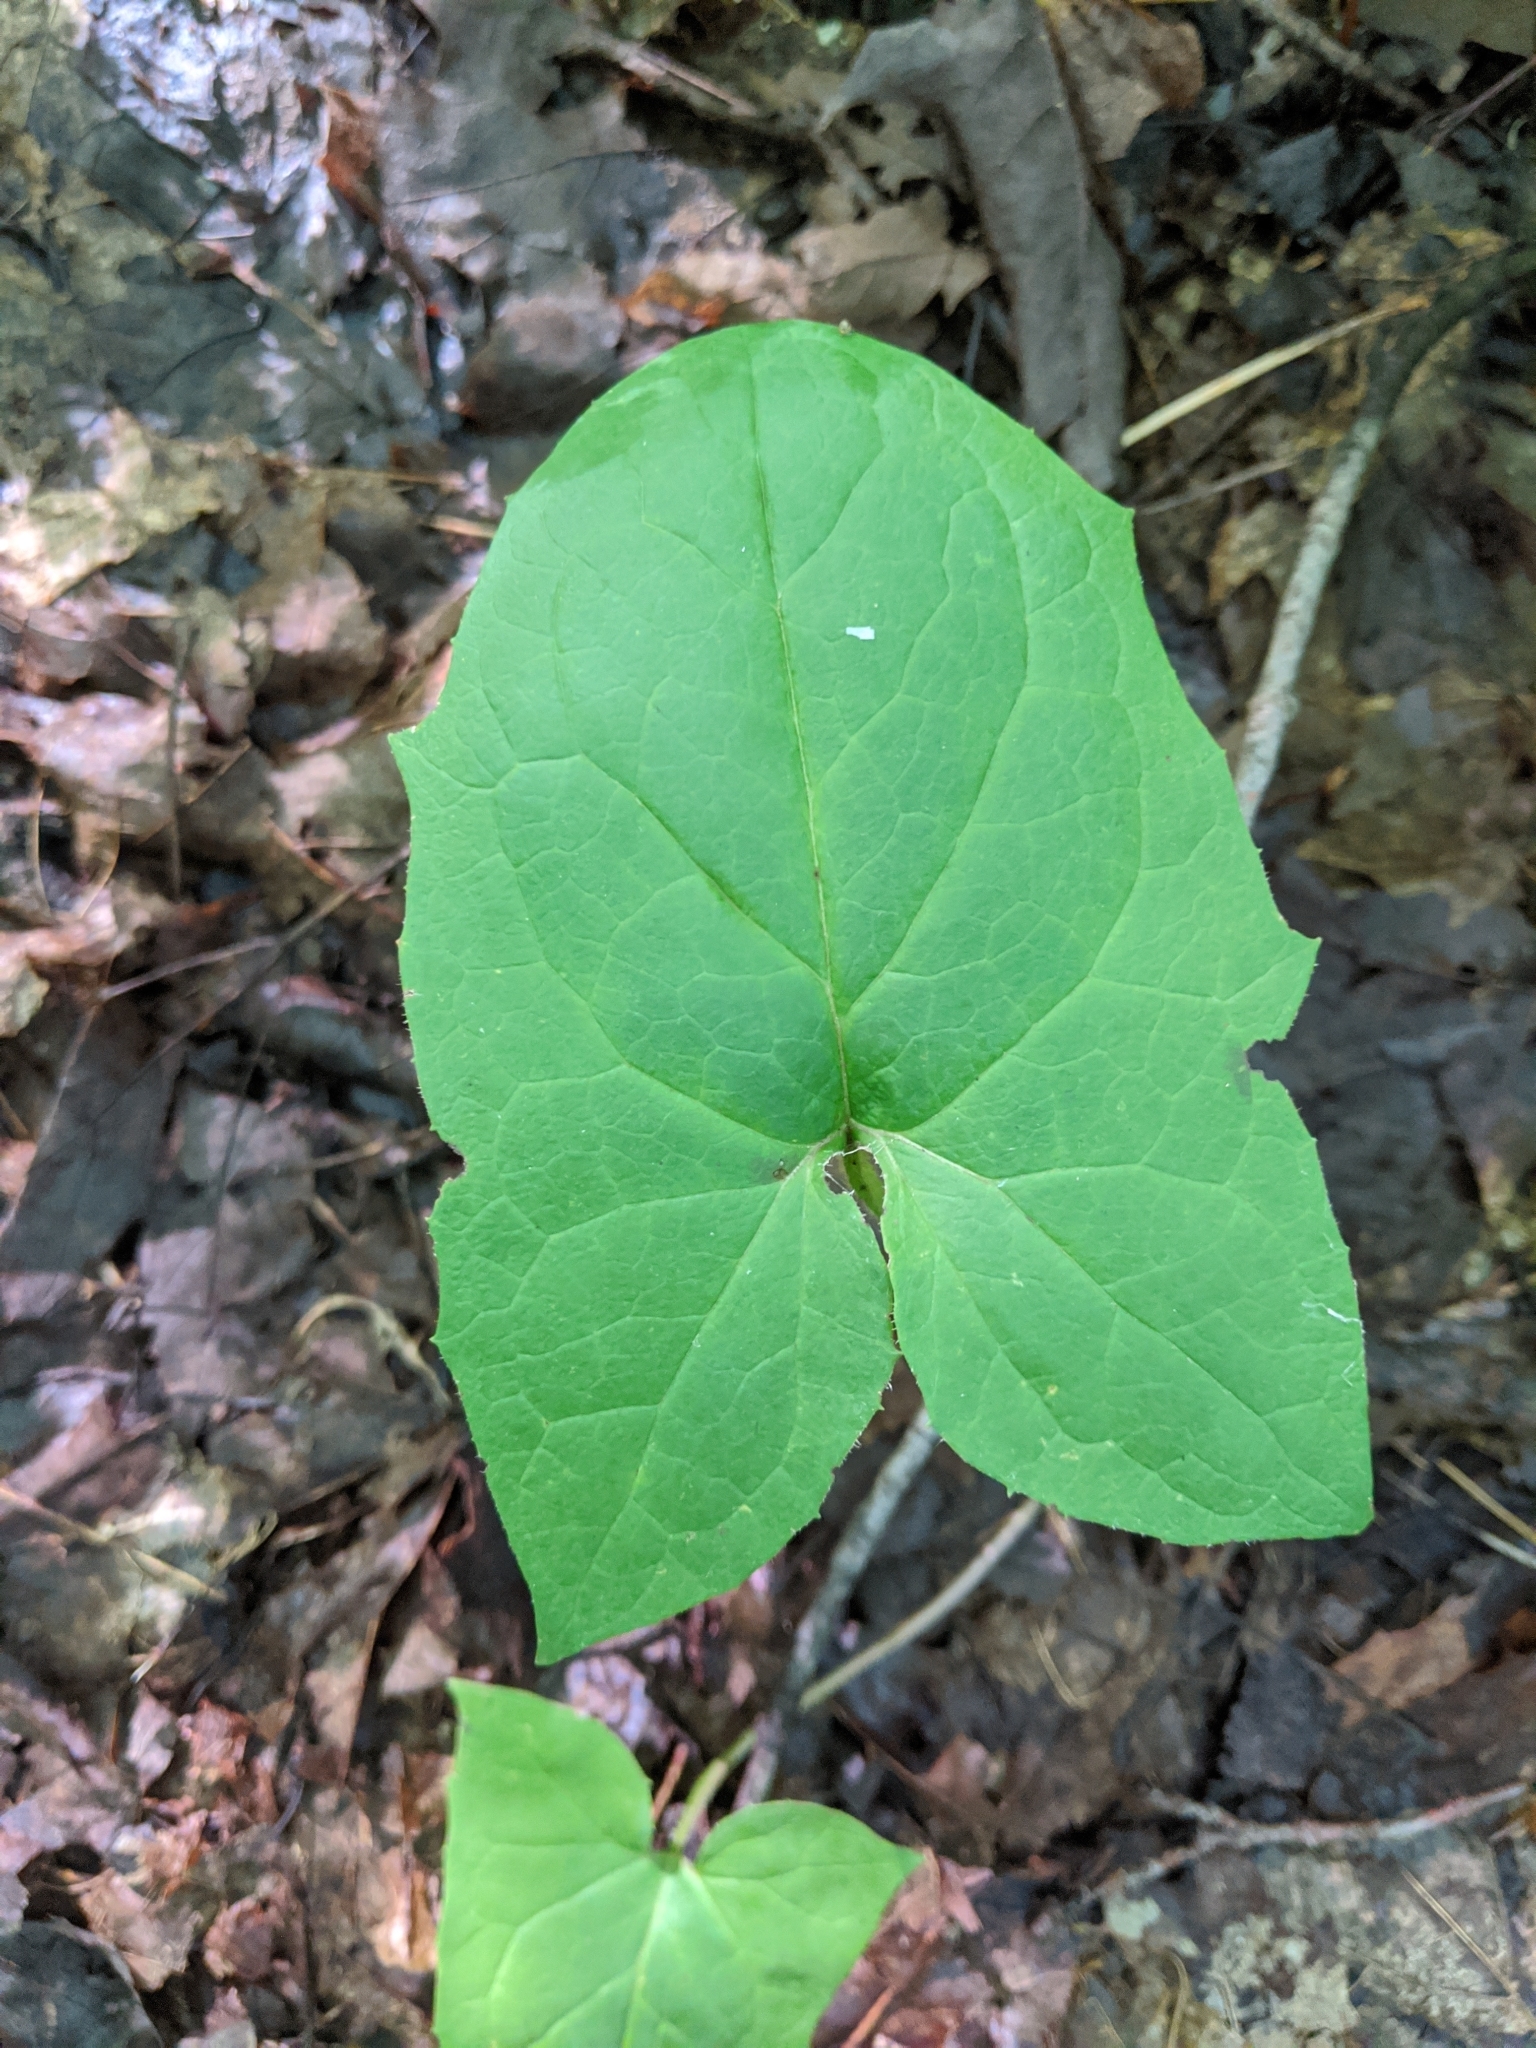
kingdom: Plantae
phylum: Tracheophyta
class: Magnoliopsida
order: Asterales
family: Asteraceae
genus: Nabalus
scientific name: Nabalus
